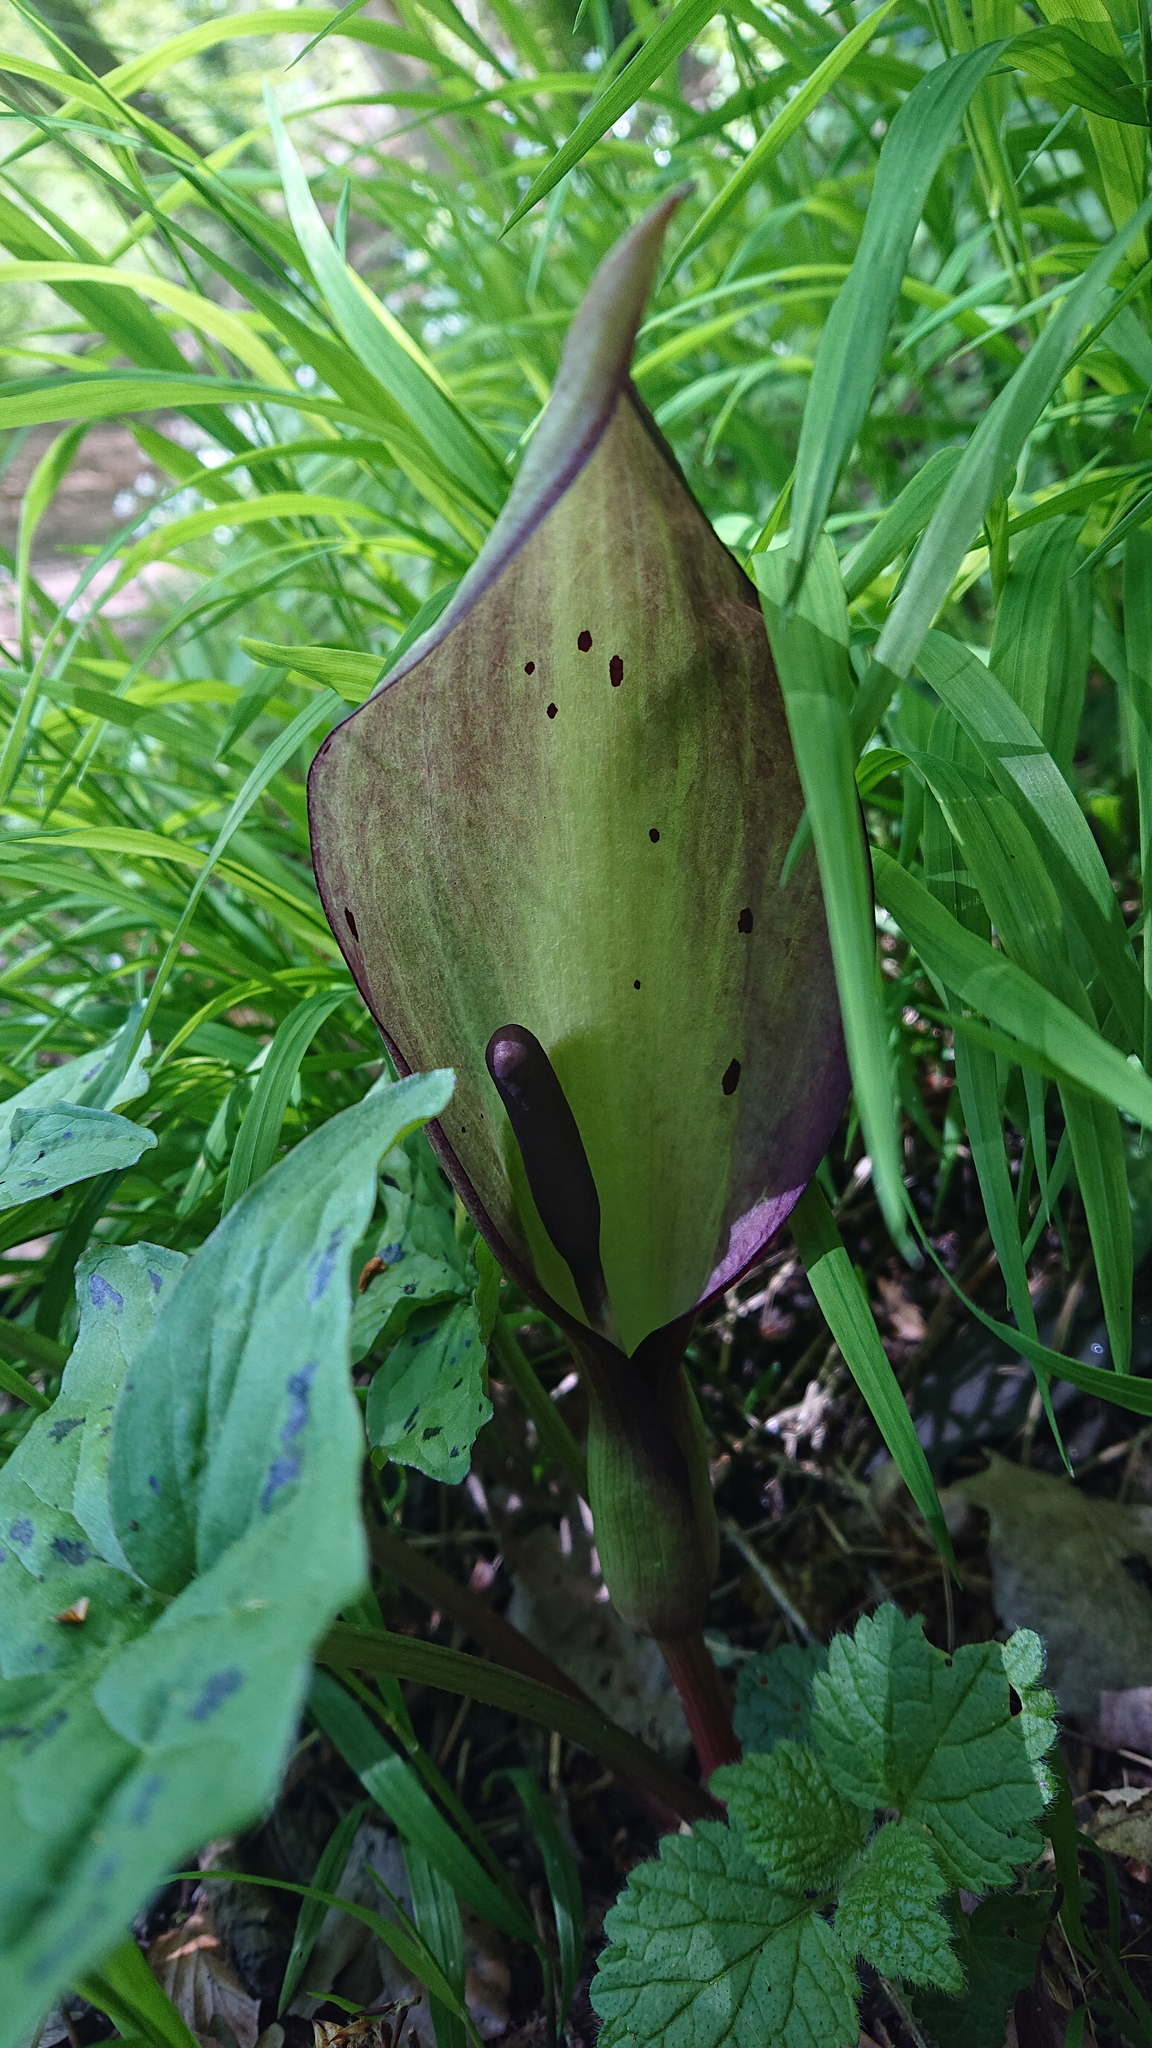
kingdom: Plantae
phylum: Tracheophyta
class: Liliopsida
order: Alismatales
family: Araceae
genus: Arum
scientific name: Arum maculatum
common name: Lords-and-ladies
